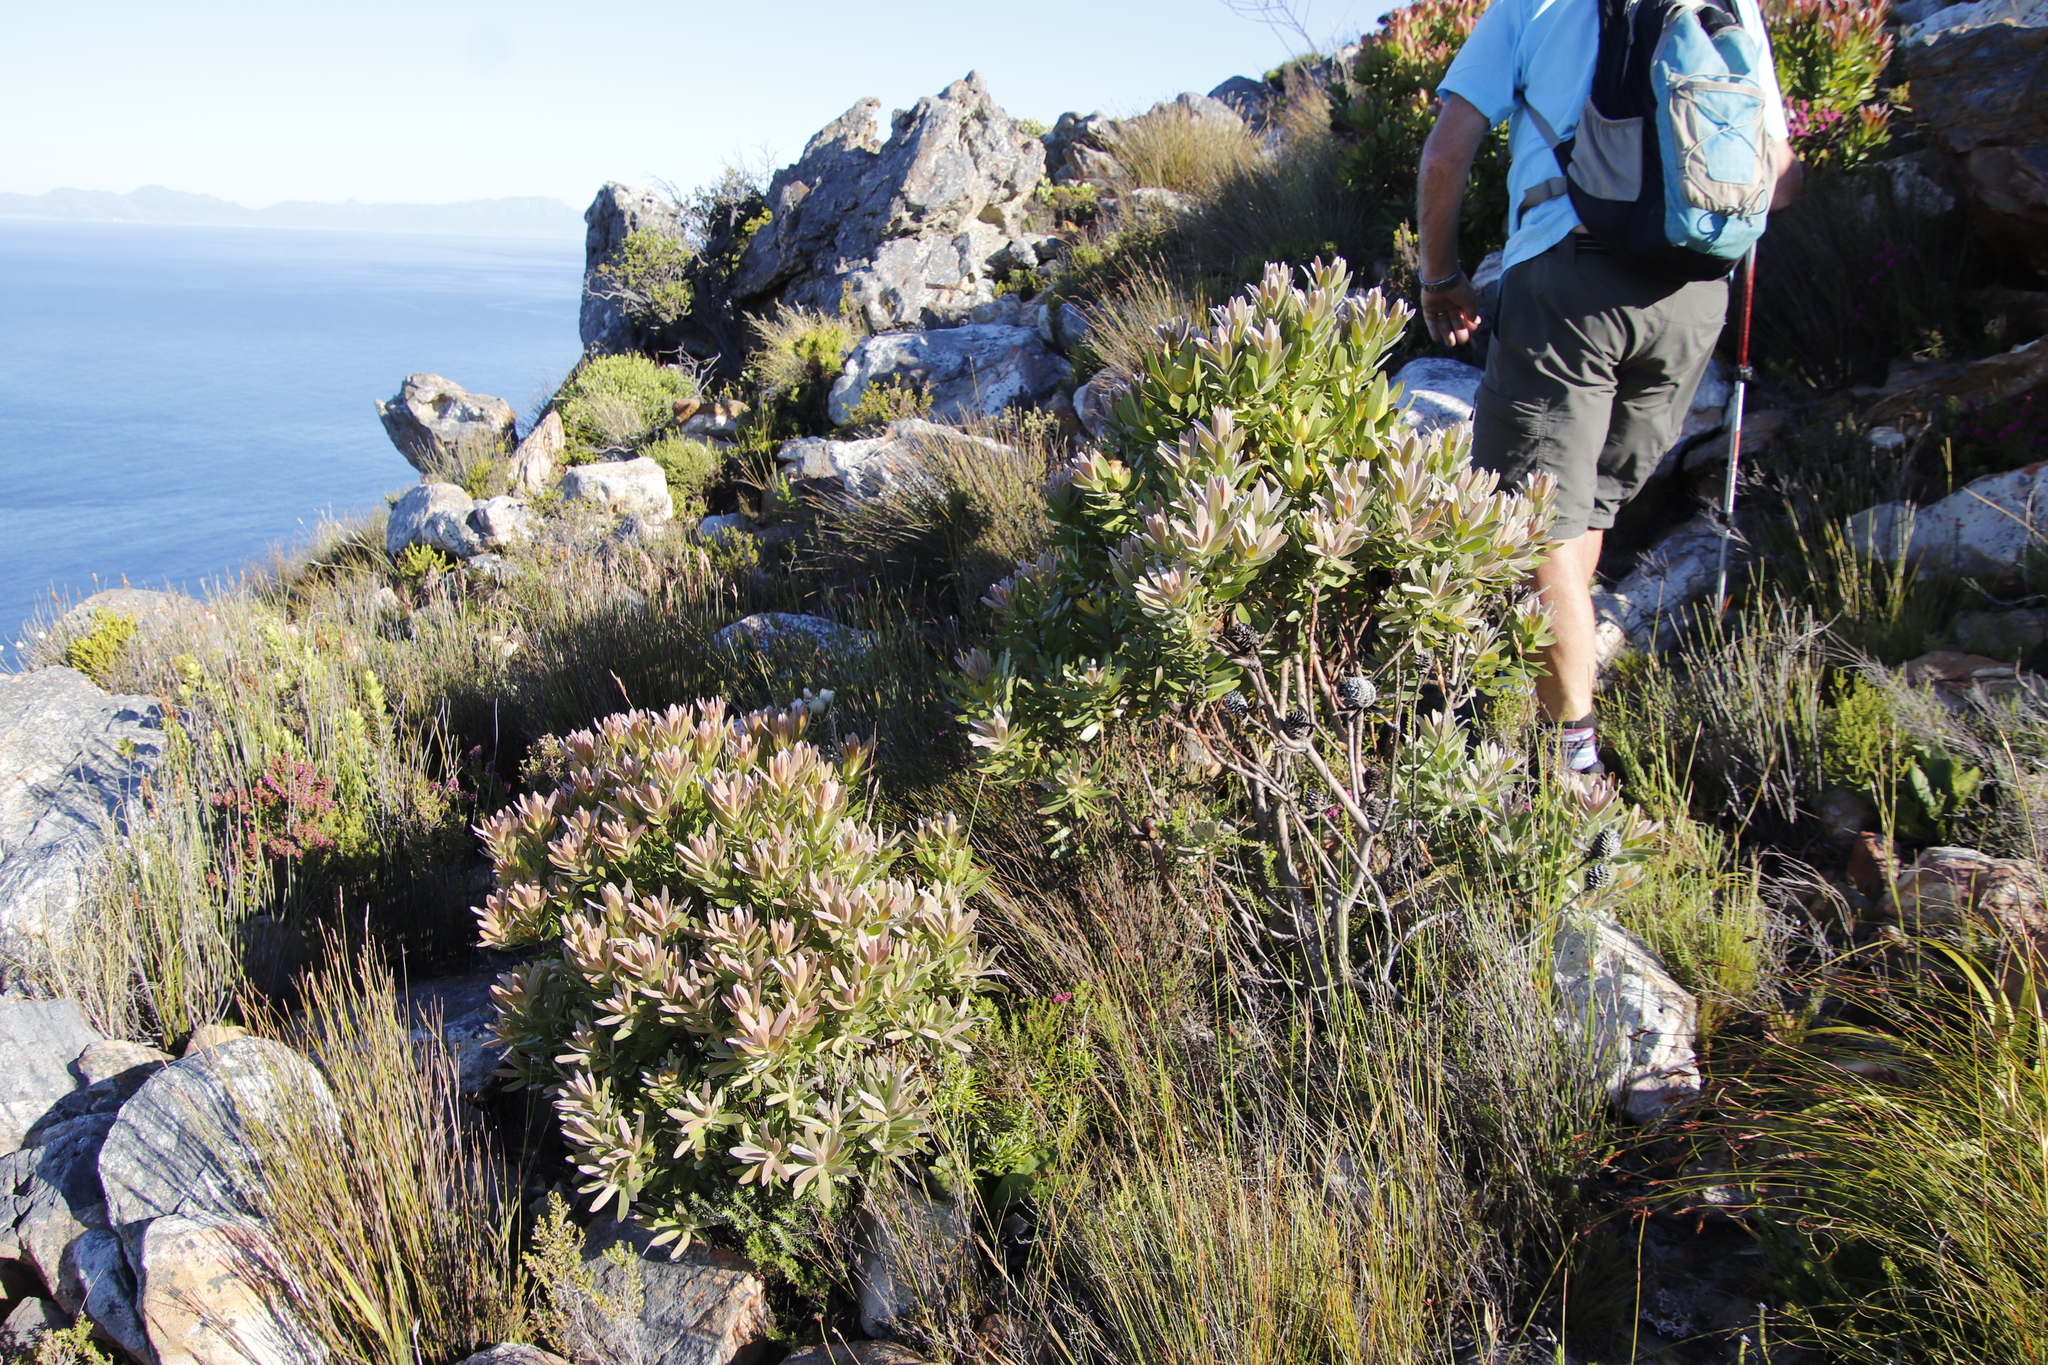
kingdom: Plantae
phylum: Tracheophyta
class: Magnoliopsida
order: Proteales
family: Proteaceae
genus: Leucadendron
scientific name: Leucadendron laureolum
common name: Golden sunshinebush
